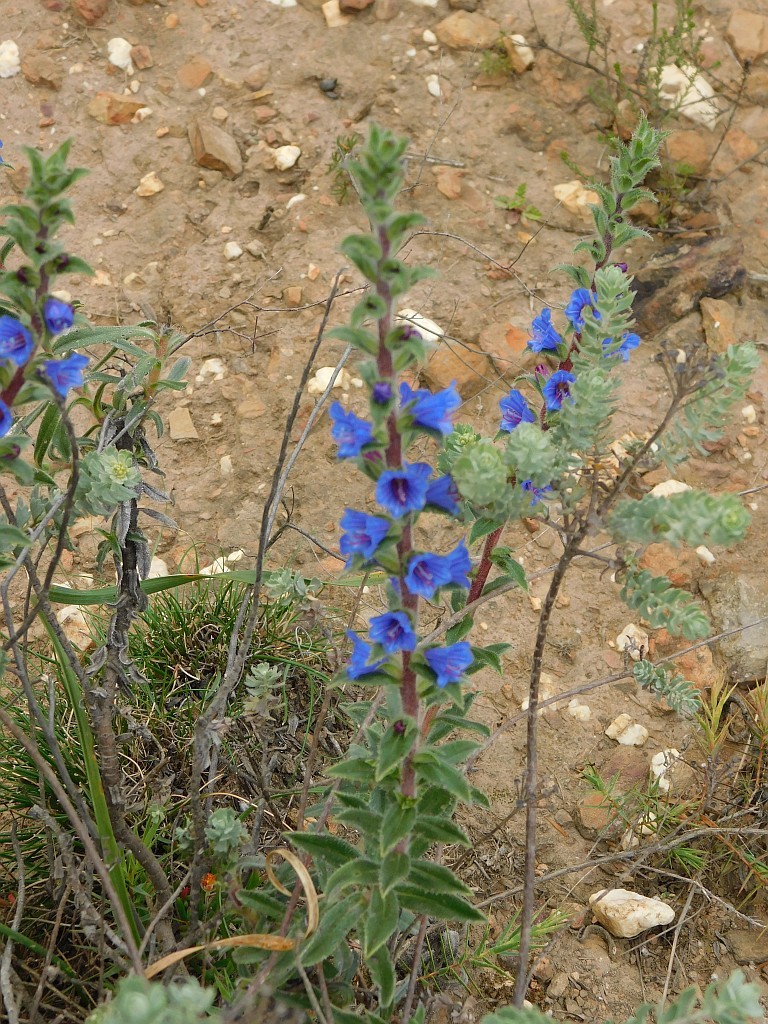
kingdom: Plantae
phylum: Tracheophyta
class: Magnoliopsida
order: Boraginales
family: Boraginaceae
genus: Lobostemon
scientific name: Lobostemon argenteus
